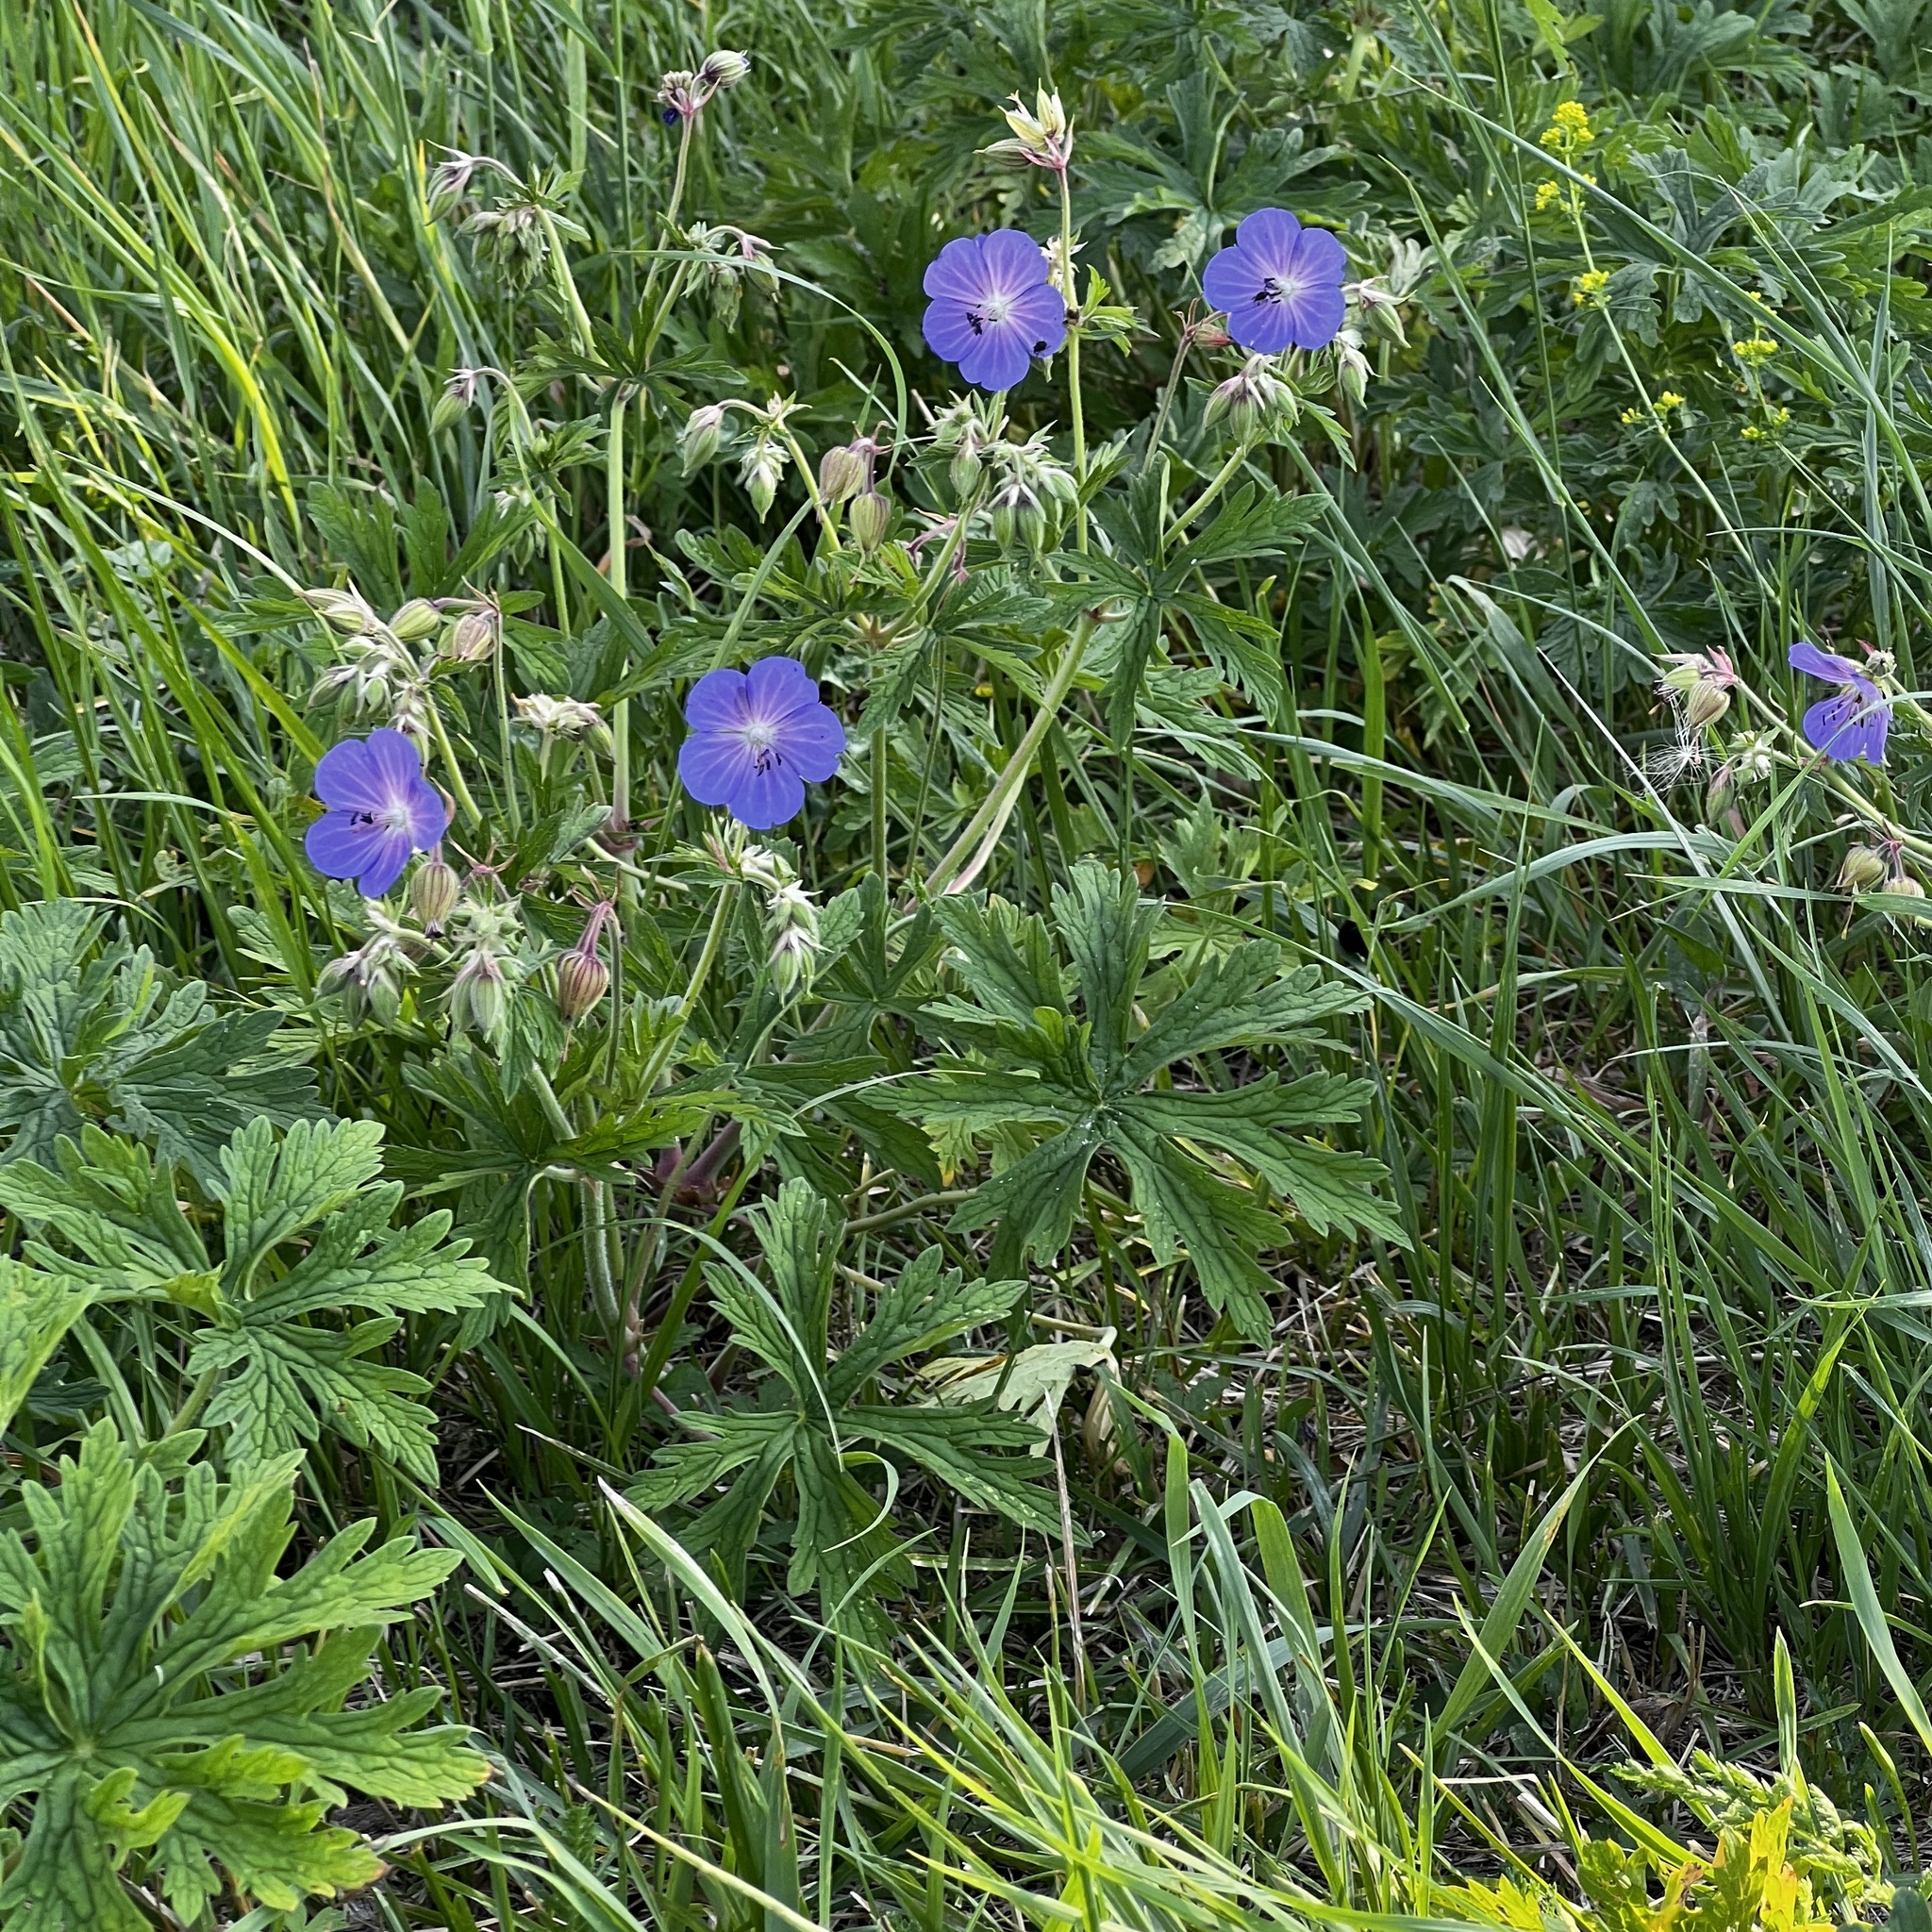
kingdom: Plantae
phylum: Tracheophyta
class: Magnoliopsida
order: Geraniales
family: Geraniaceae
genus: Geranium
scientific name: Geranium pratense
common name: Meadow crane's-bill
